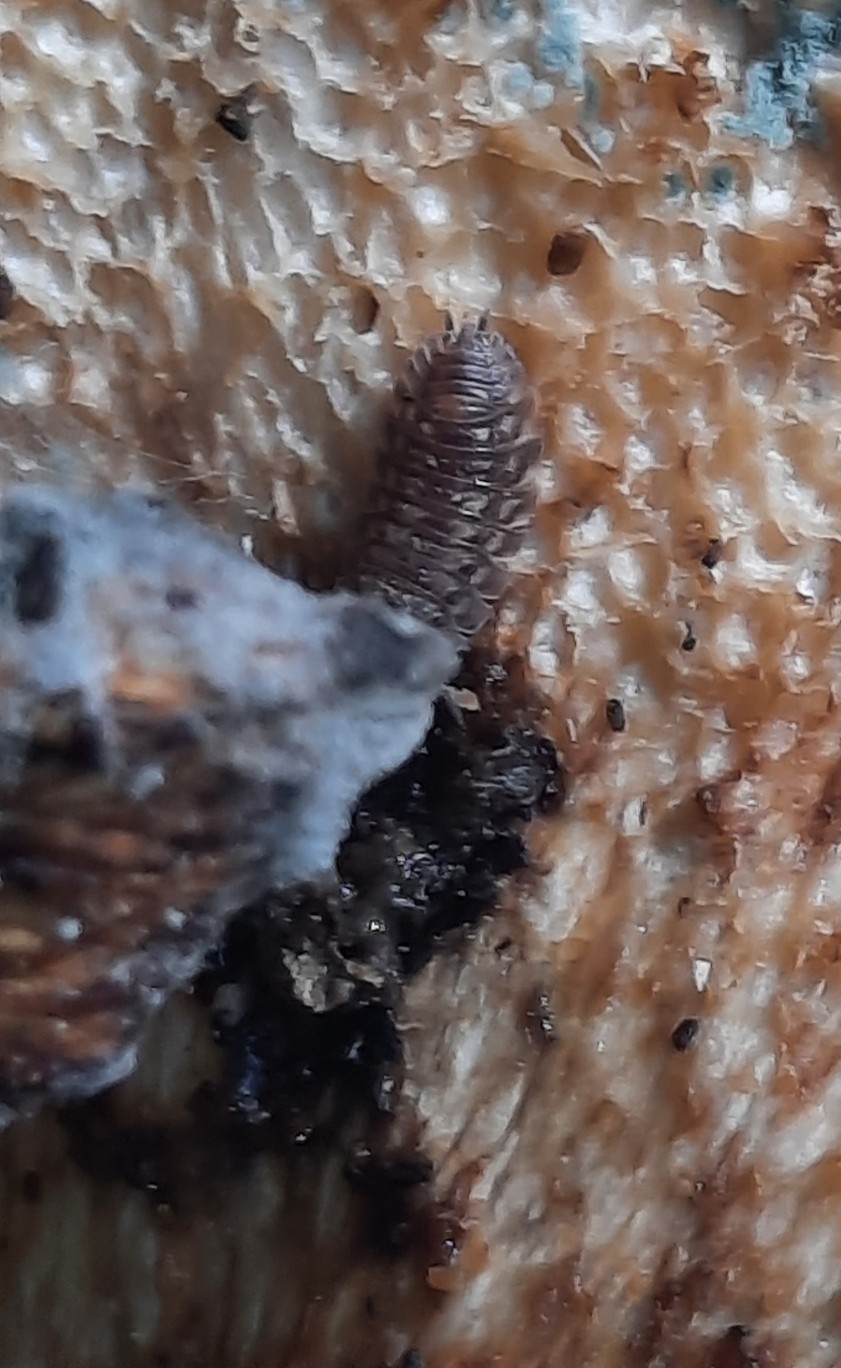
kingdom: Animalia
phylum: Arthropoda
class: Malacostraca
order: Isopoda
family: Oniscidae
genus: Oniscus
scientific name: Oniscus asellus
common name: Common shiny woodlouse
